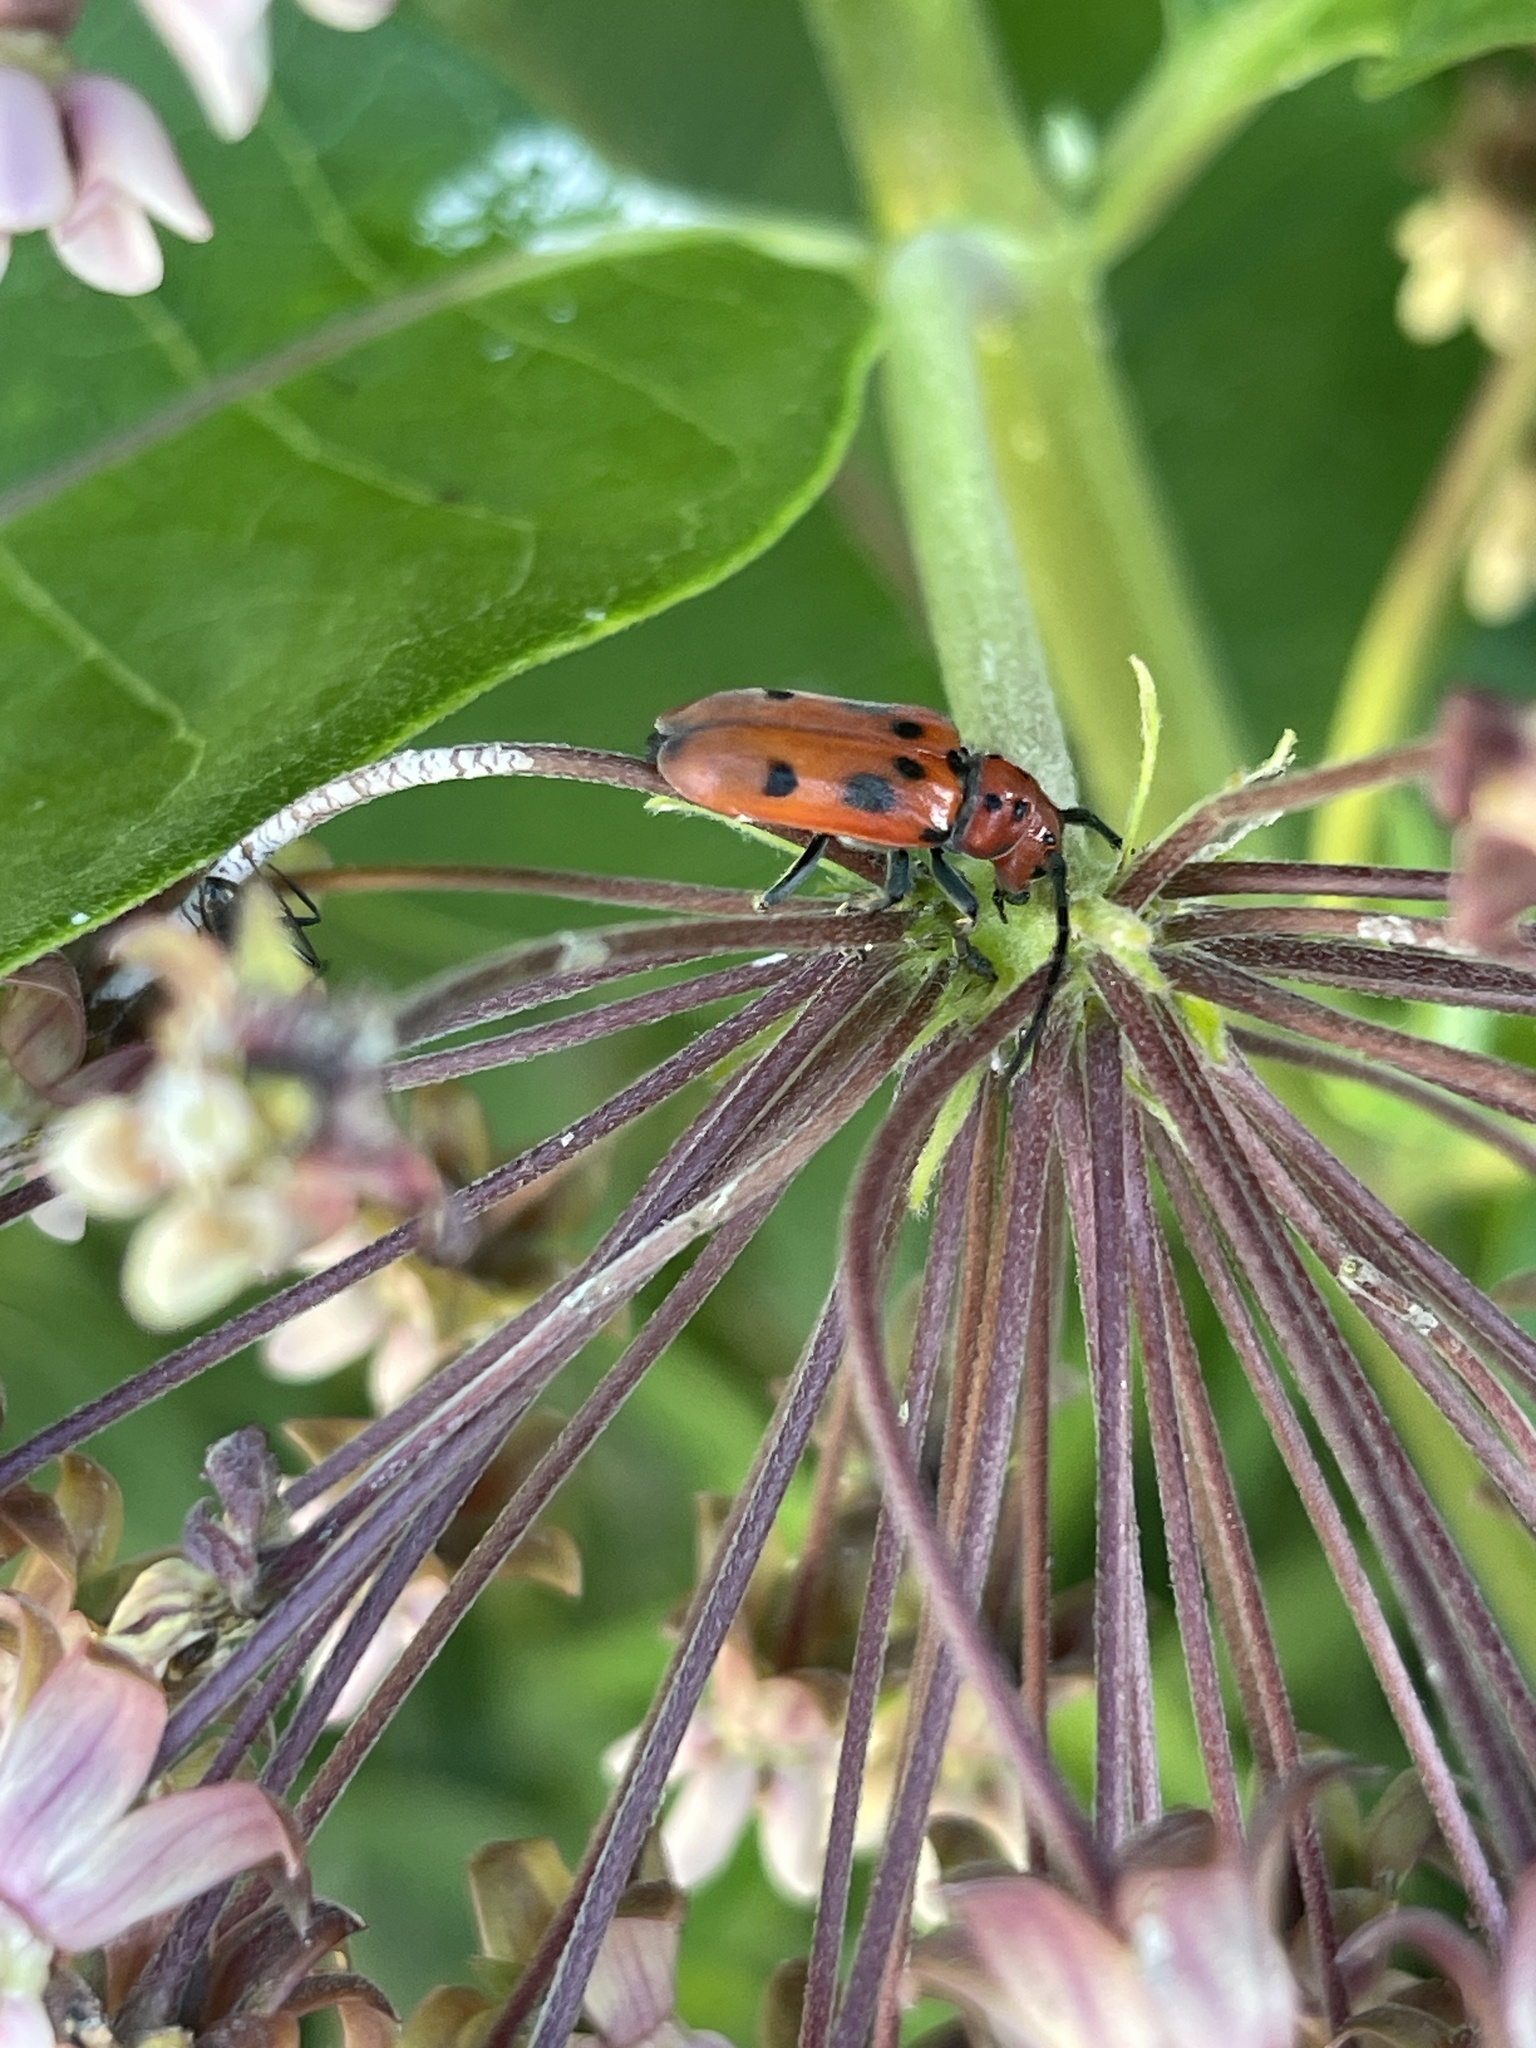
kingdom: Animalia
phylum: Arthropoda
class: Insecta
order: Coleoptera
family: Cerambycidae
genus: Tetraopes
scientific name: Tetraopes tetrophthalmus
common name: Red milkweed beetle
